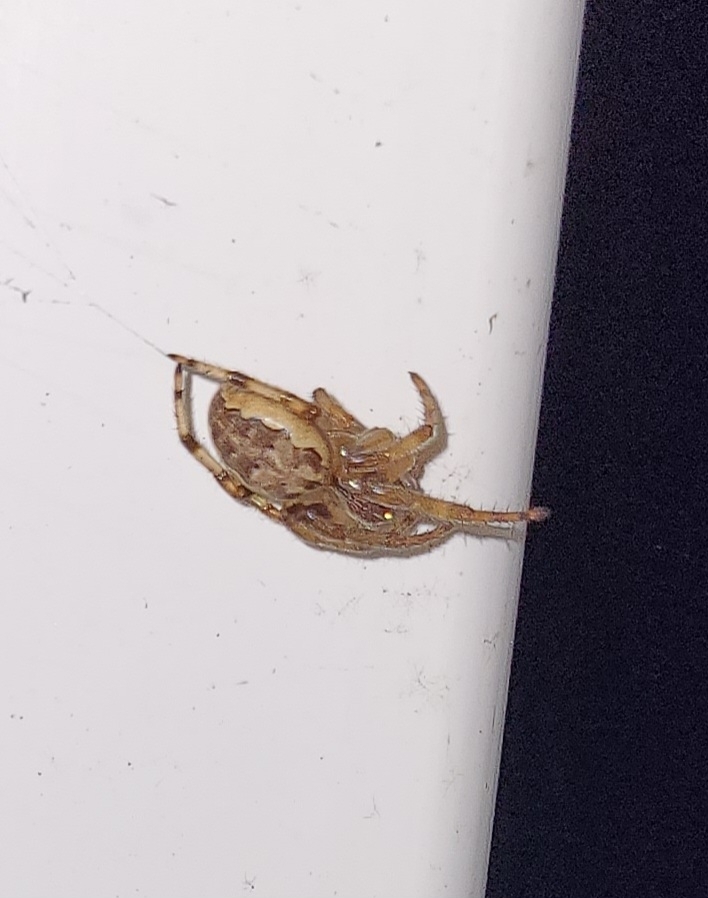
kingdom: Animalia
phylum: Arthropoda
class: Arachnida
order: Araneae
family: Araneidae
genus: Larinioides
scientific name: Larinioides cornutus
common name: Furrow orbweaver
